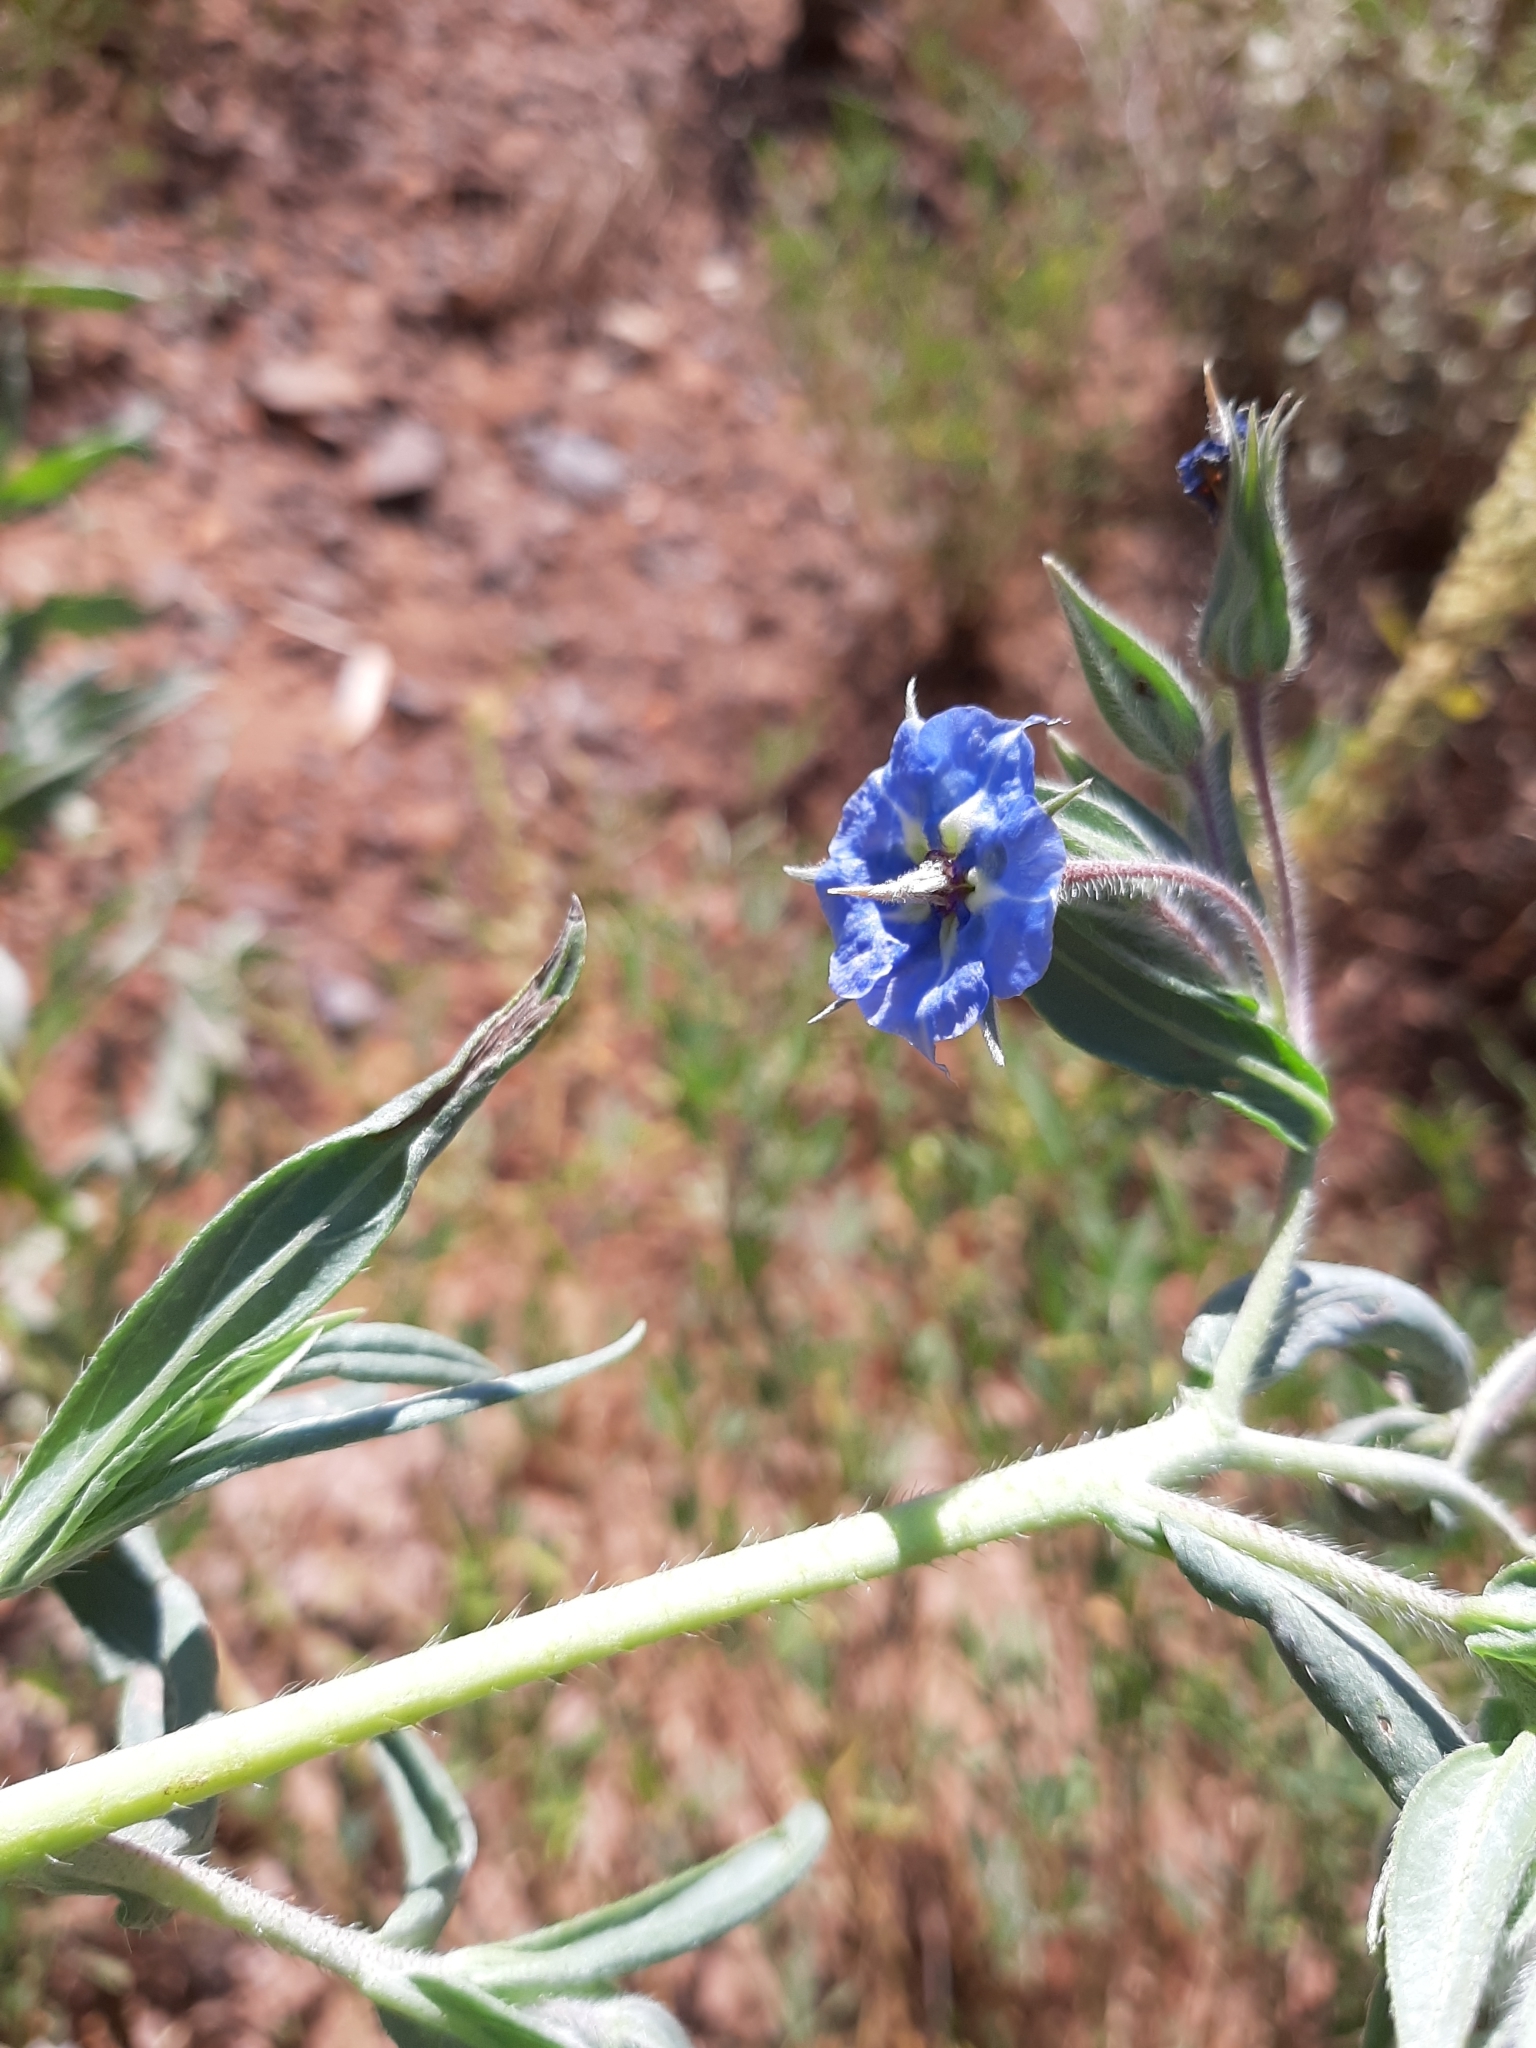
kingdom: Plantae
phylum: Tracheophyta
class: Magnoliopsida
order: Boraginales
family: Boraginaceae
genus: Trichodesma
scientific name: Trichodesma zeylanicum
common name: Camelbush
